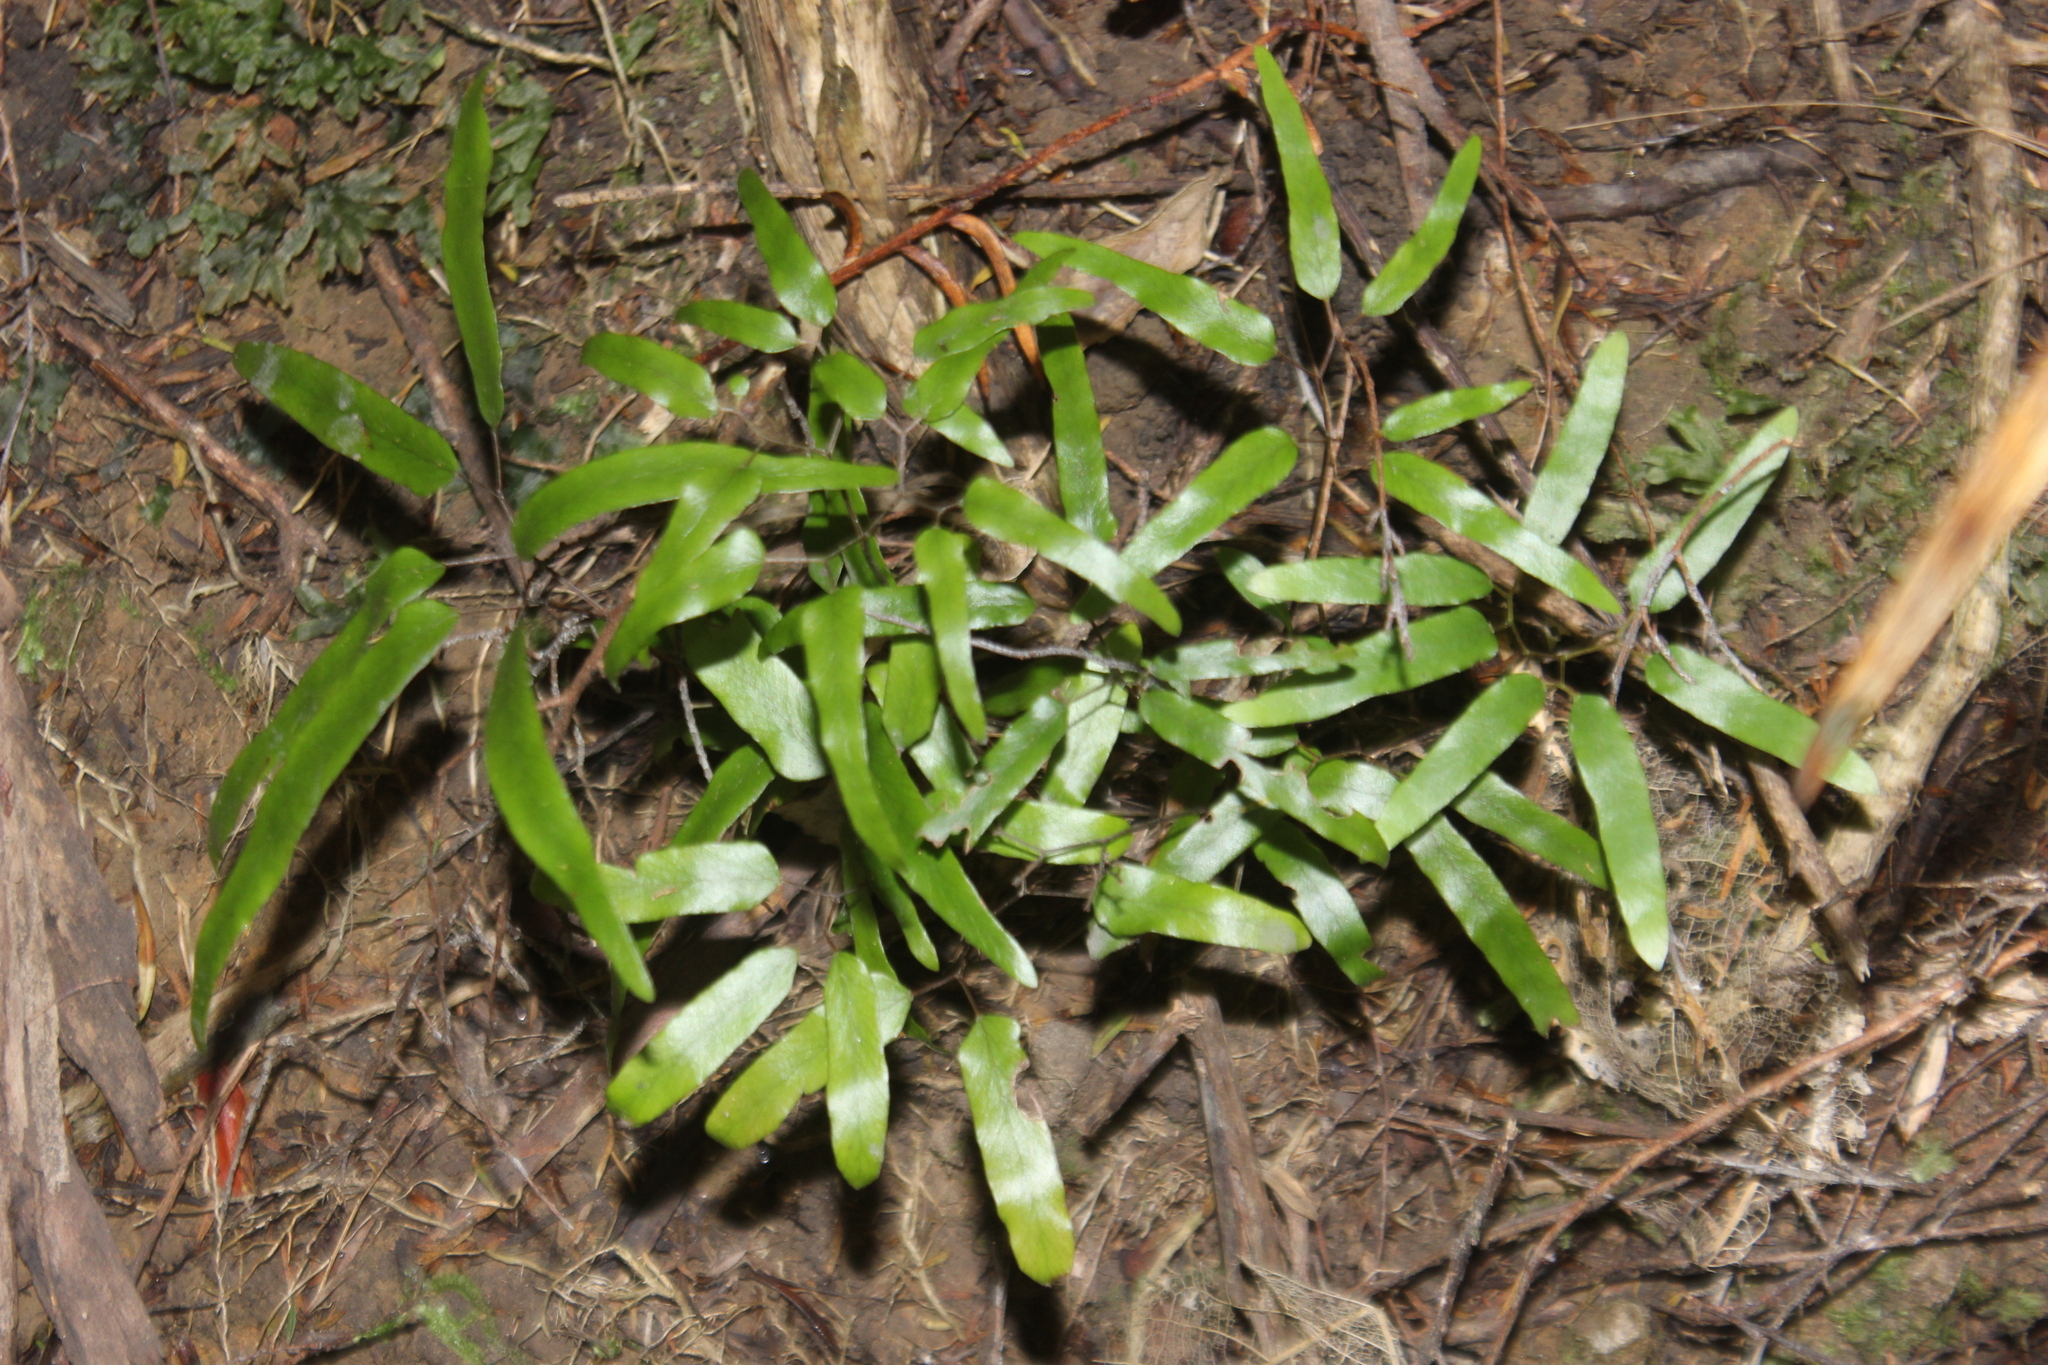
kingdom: Plantae
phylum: Tracheophyta
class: Polypodiopsida
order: Schizaeales
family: Lygodiaceae
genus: Lygodium
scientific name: Lygodium articulatum
